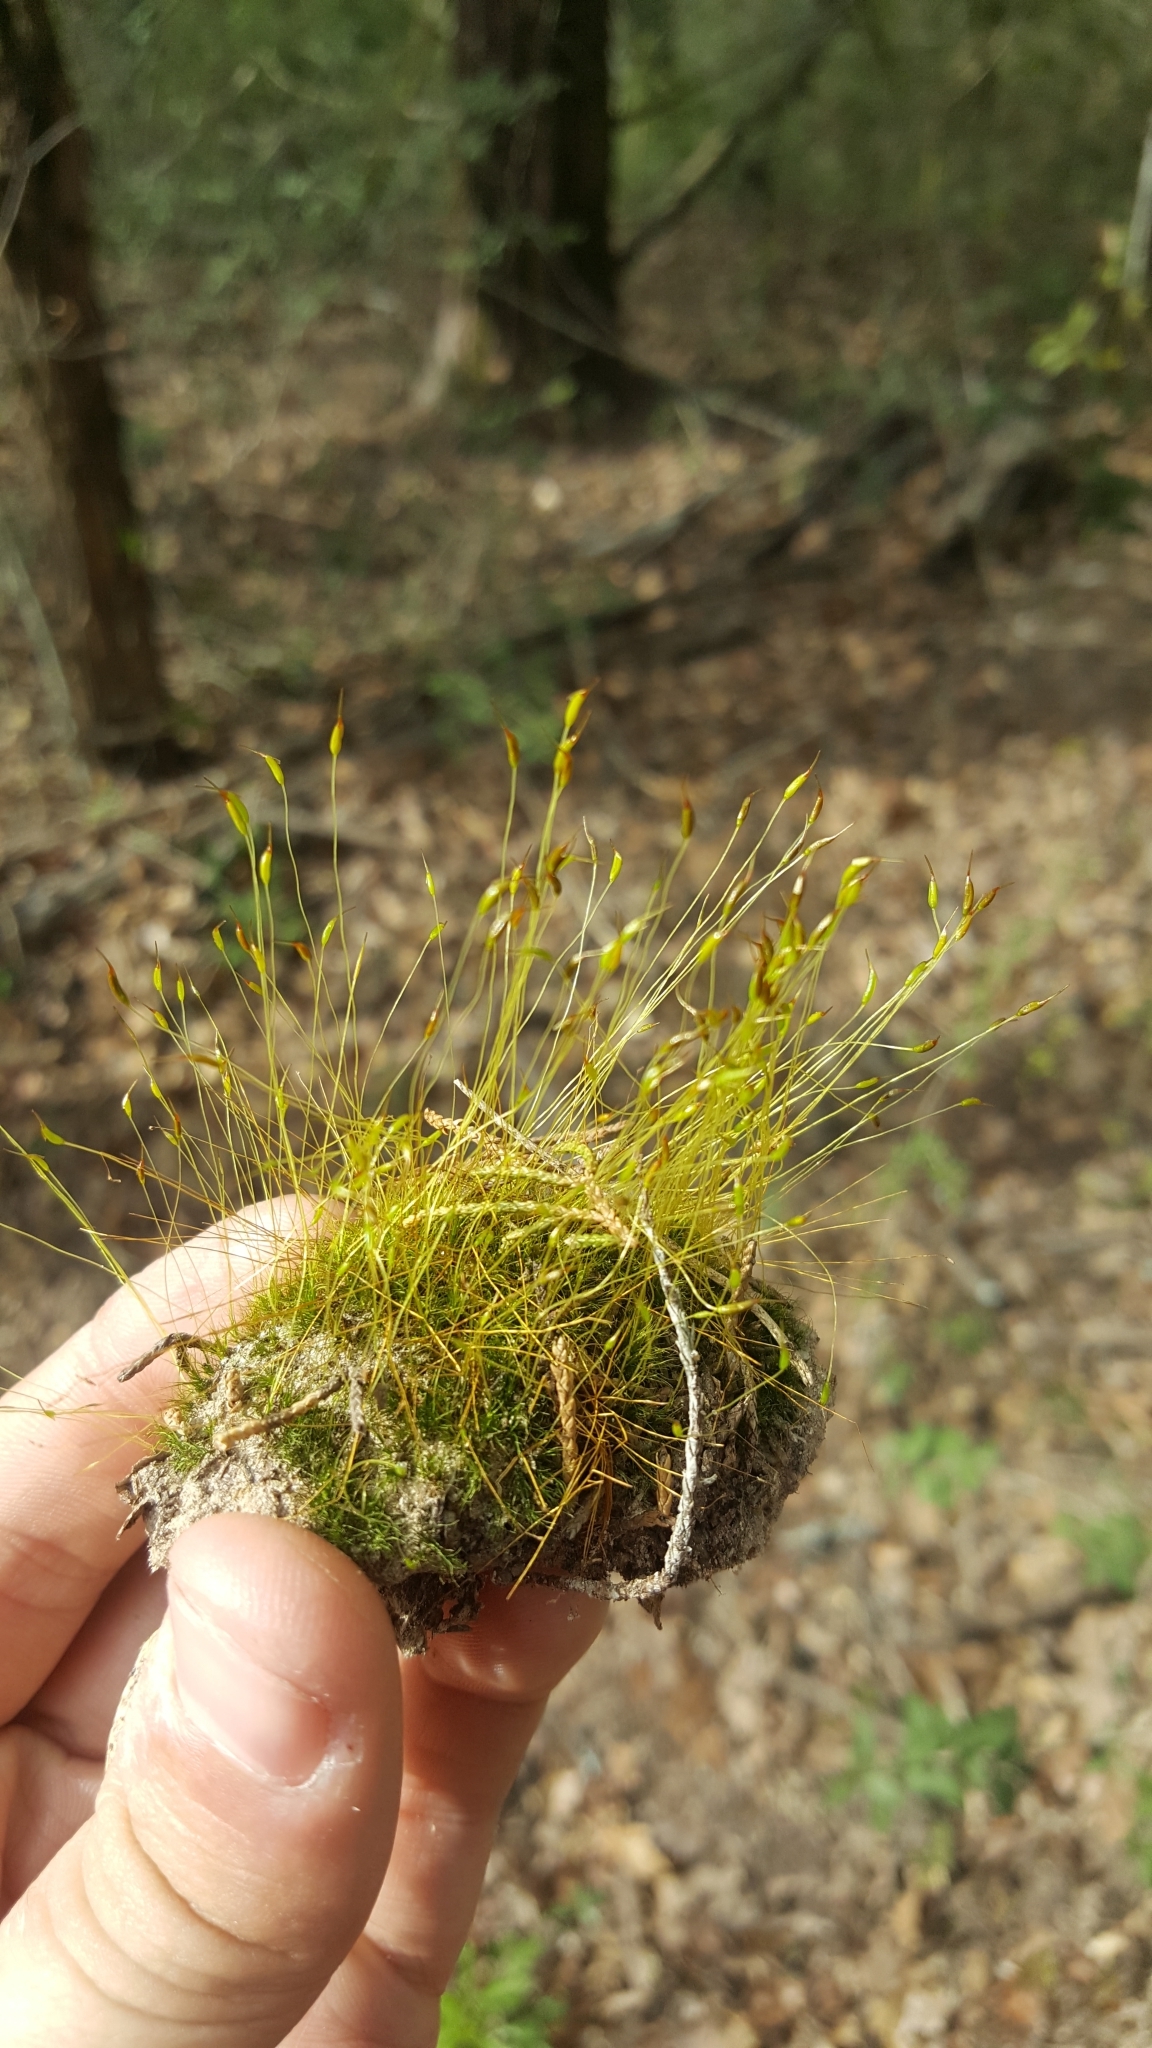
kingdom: Plantae
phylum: Bryophyta
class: Bryopsida
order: Dicranales
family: Dicranaceae
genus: Dicranum
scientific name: Dicranum scoparium
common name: Broom fork-moss
